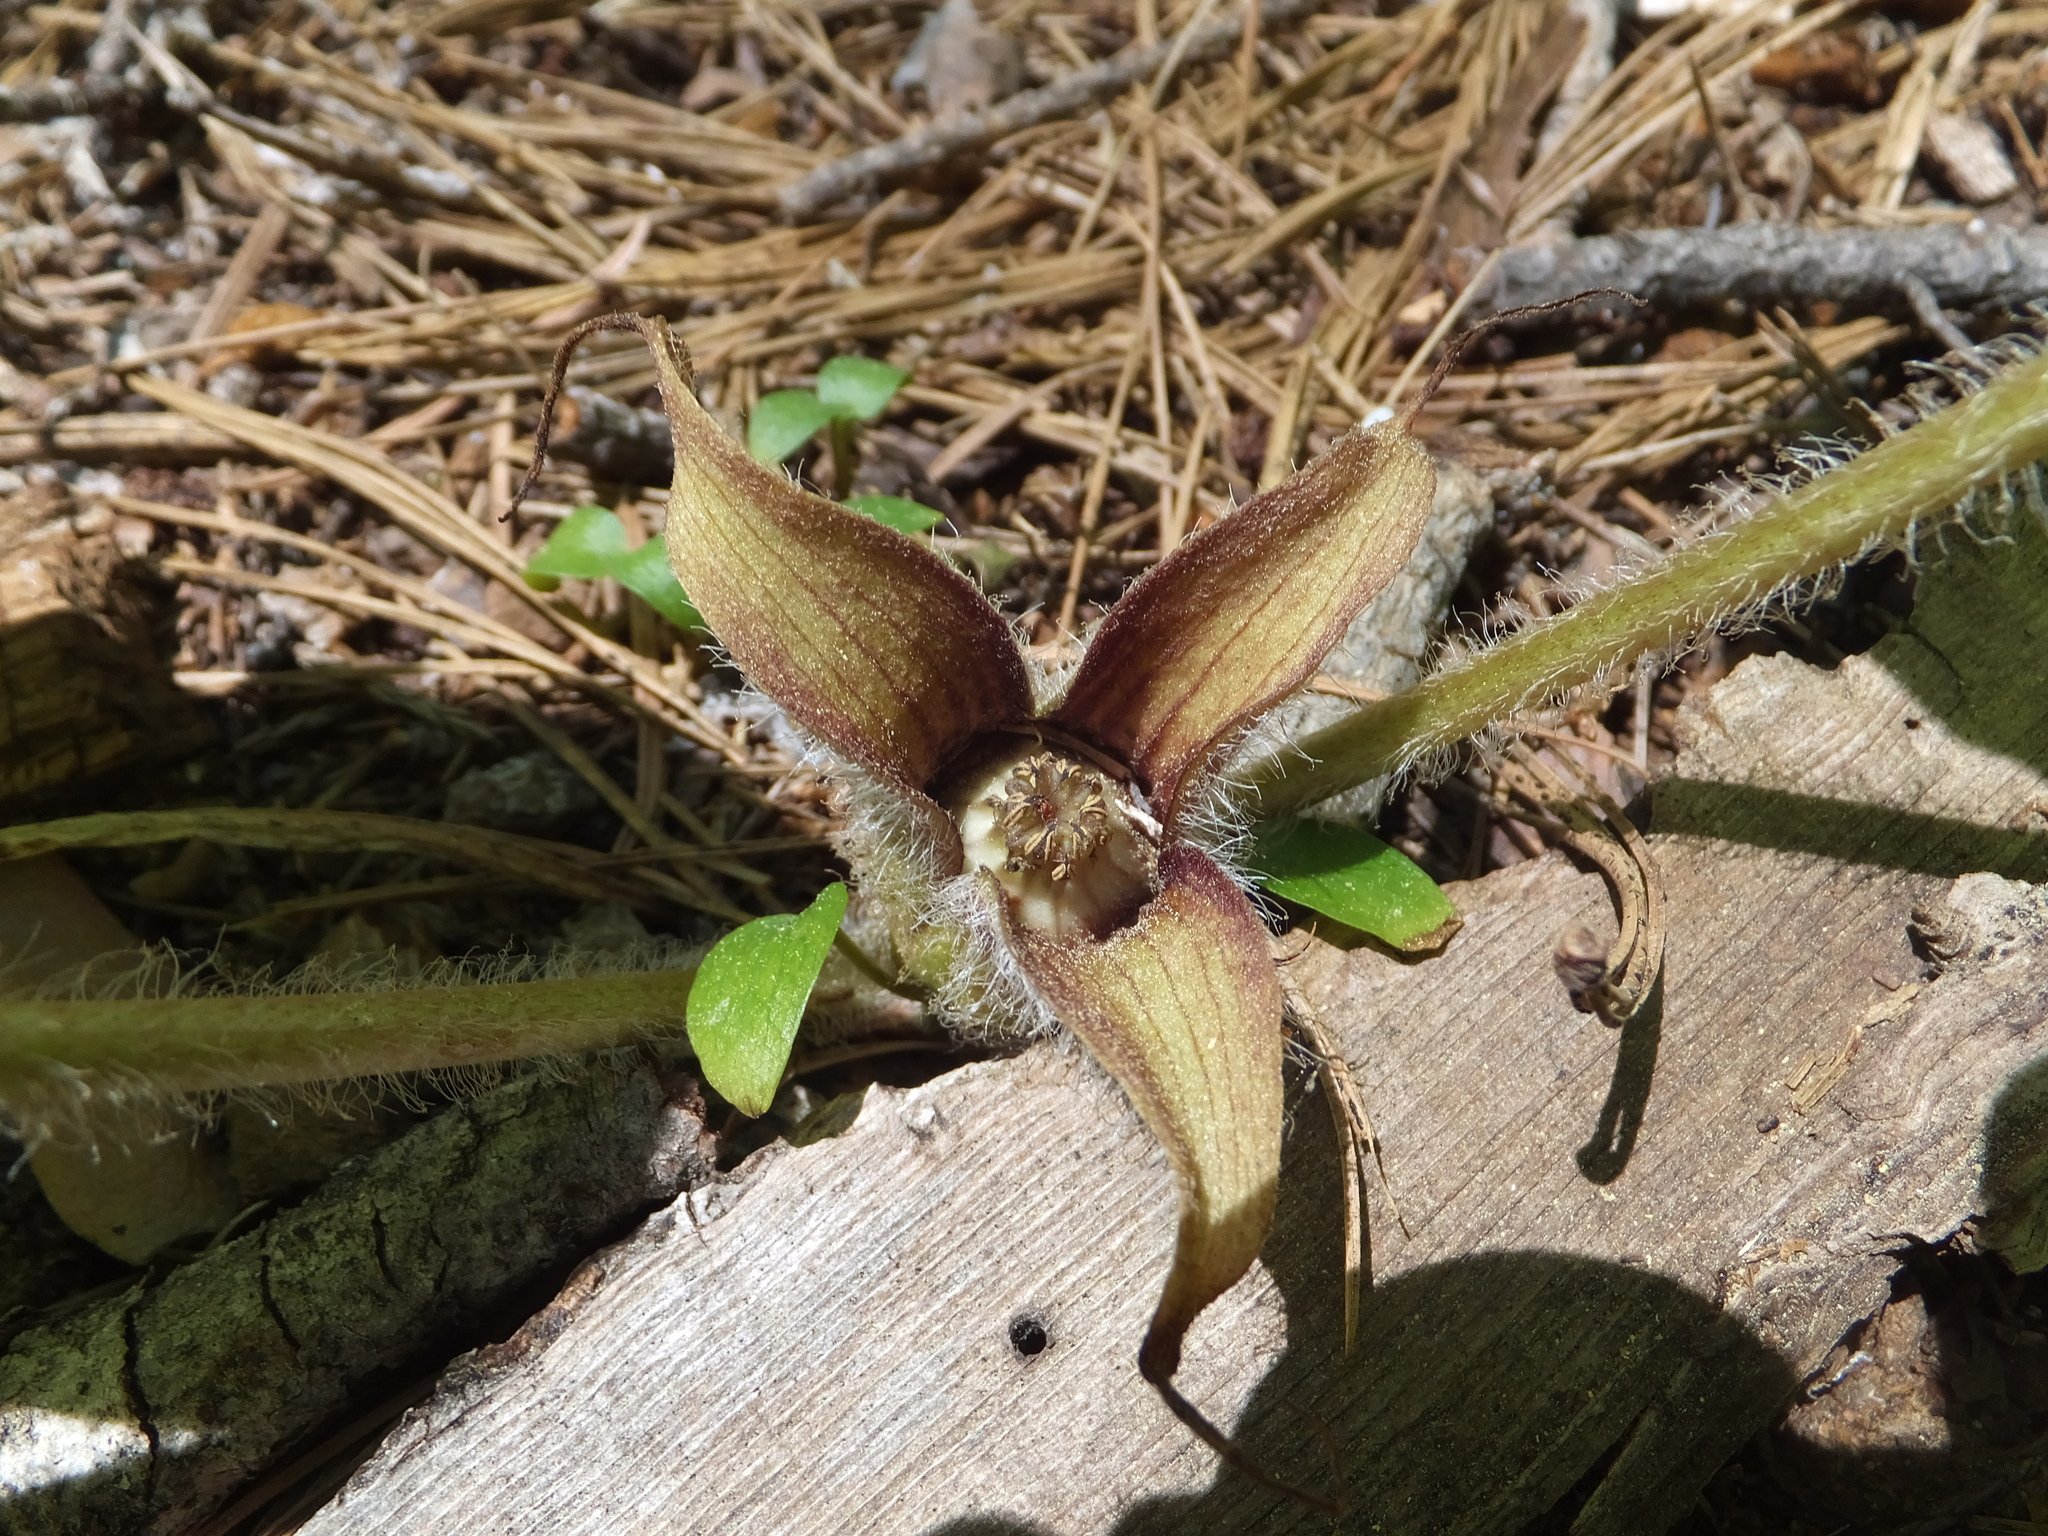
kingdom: Plantae
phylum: Tracheophyta
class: Magnoliopsida
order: Piperales
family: Aristolochiaceae
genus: Asarum
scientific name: Asarum hartwegii
